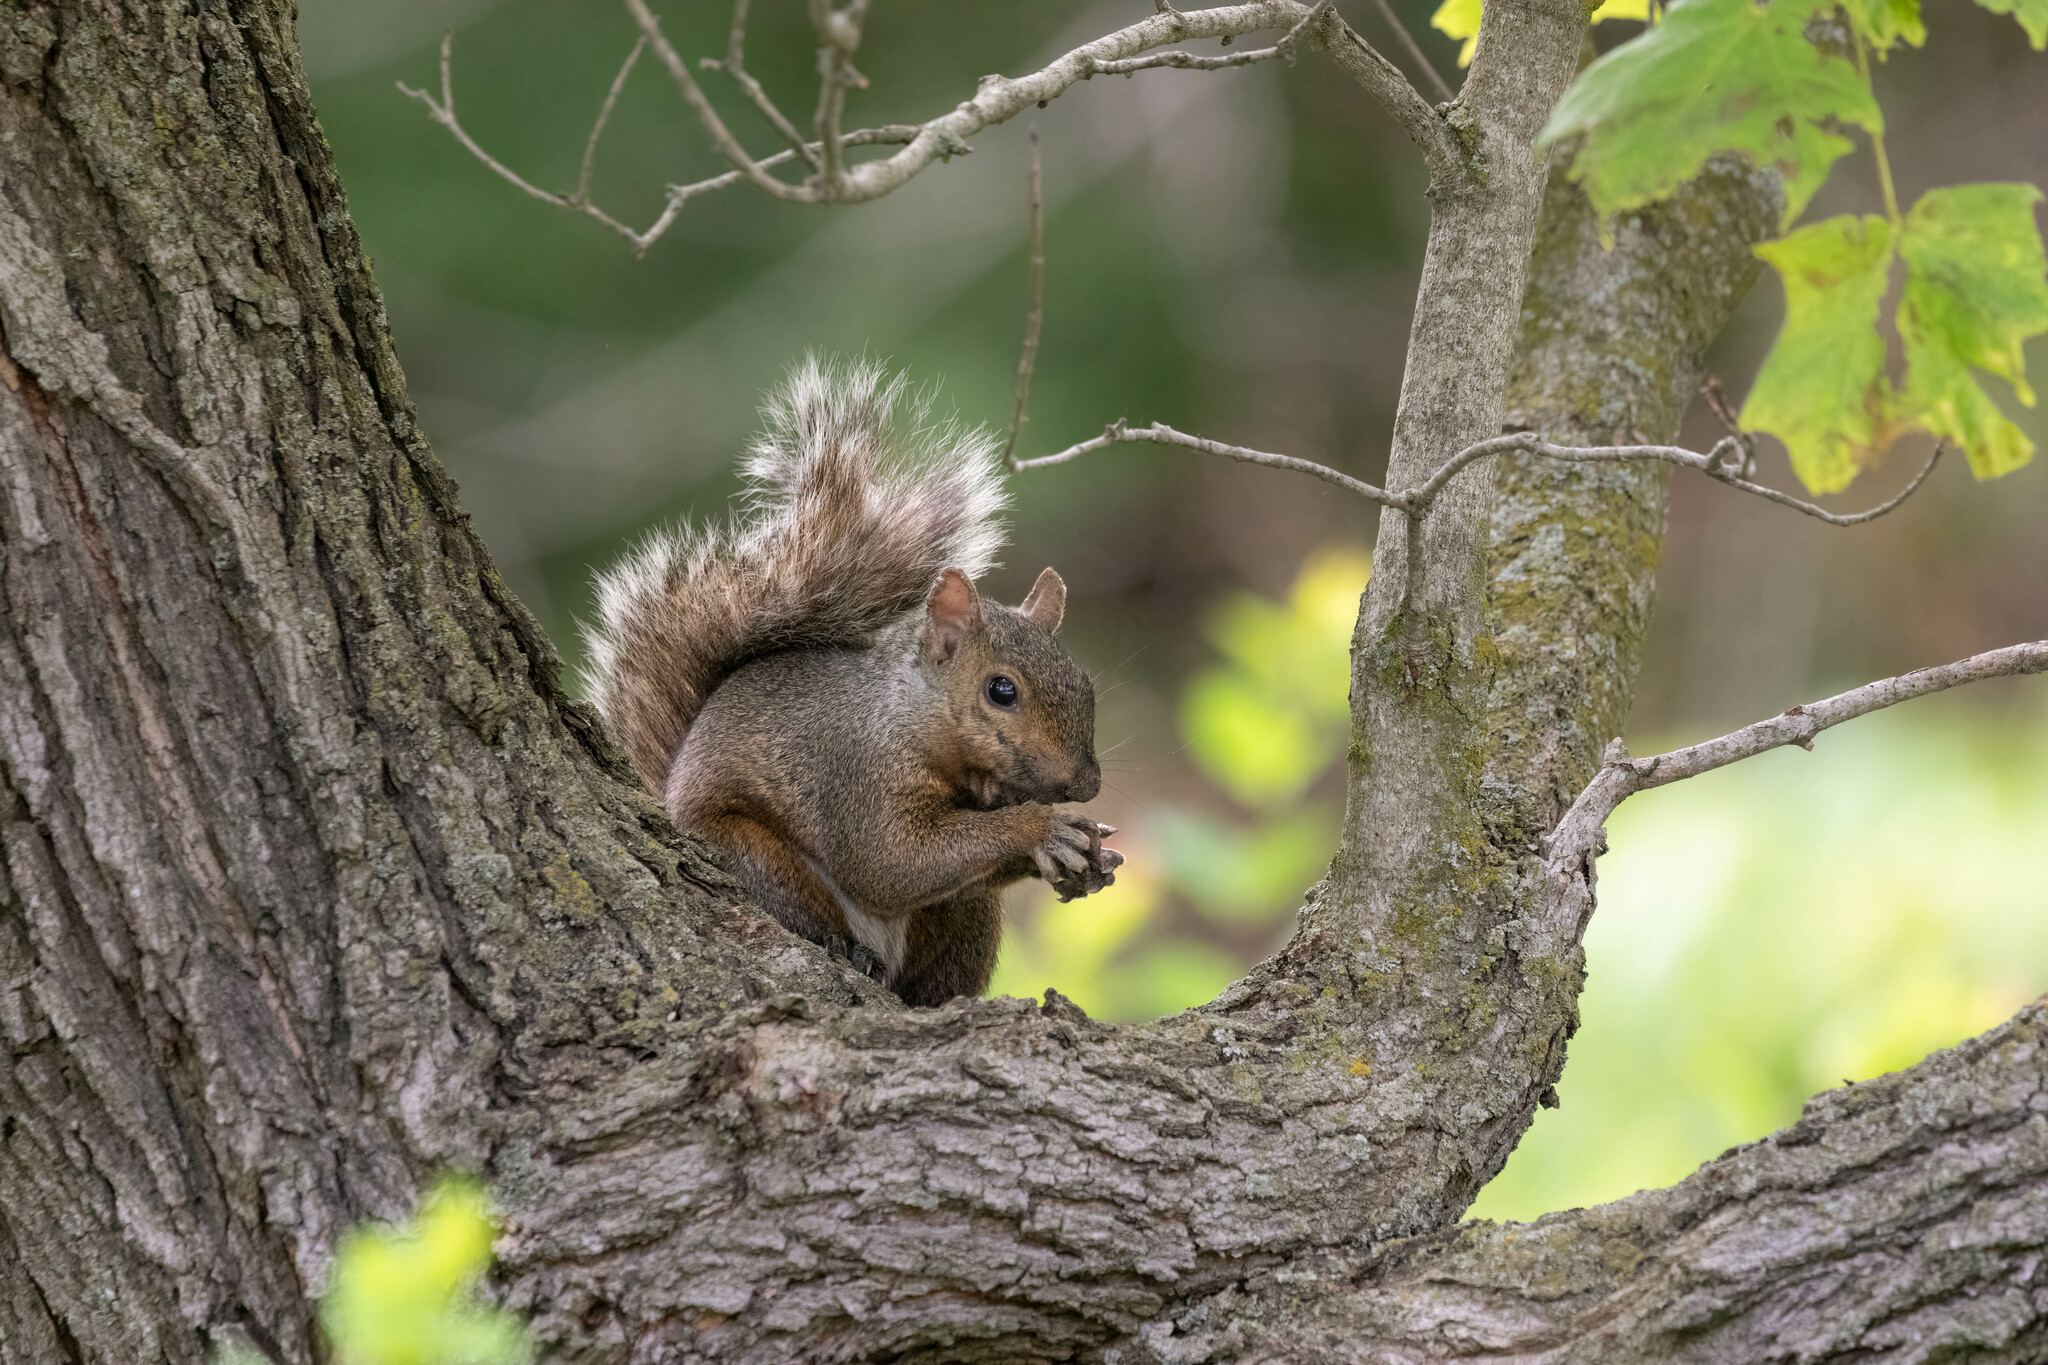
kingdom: Animalia
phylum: Chordata
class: Mammalia
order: Rodentia
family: Sciuridae
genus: Sciurus
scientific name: Sciurus carolinensis
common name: Eastern gray squirrel
